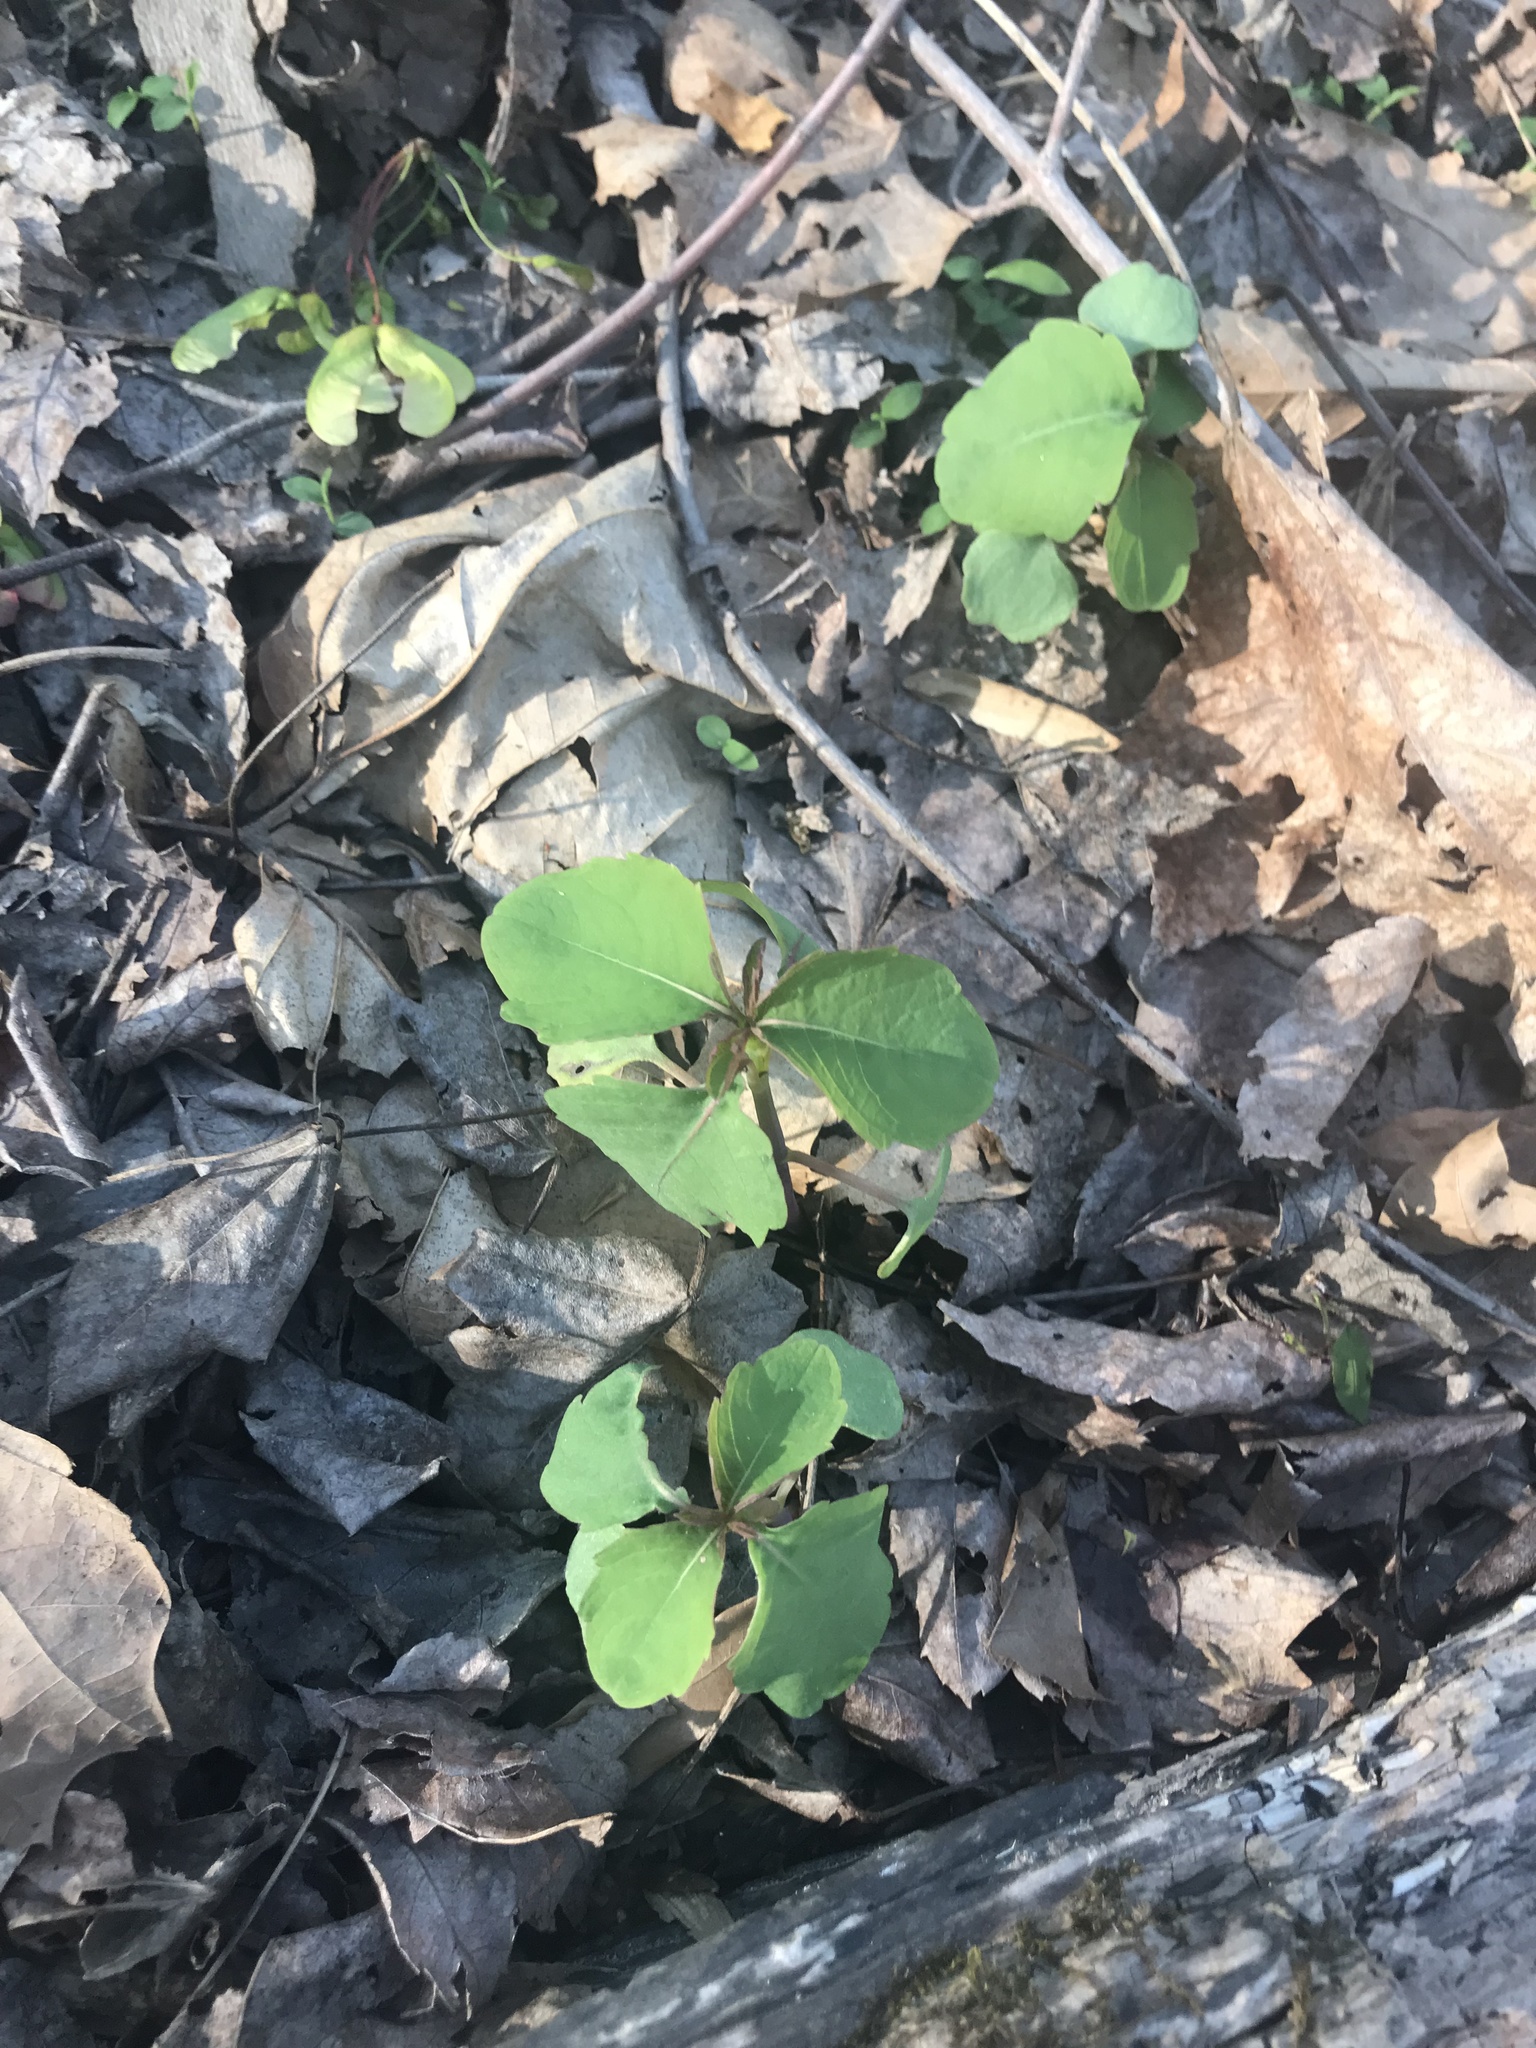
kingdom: Plantae
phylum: Tracheophyta
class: Magnoliopsida
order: Ericales
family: Balsaminaceae
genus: Impatiens
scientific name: Impatiens capensis
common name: Orange balsam
